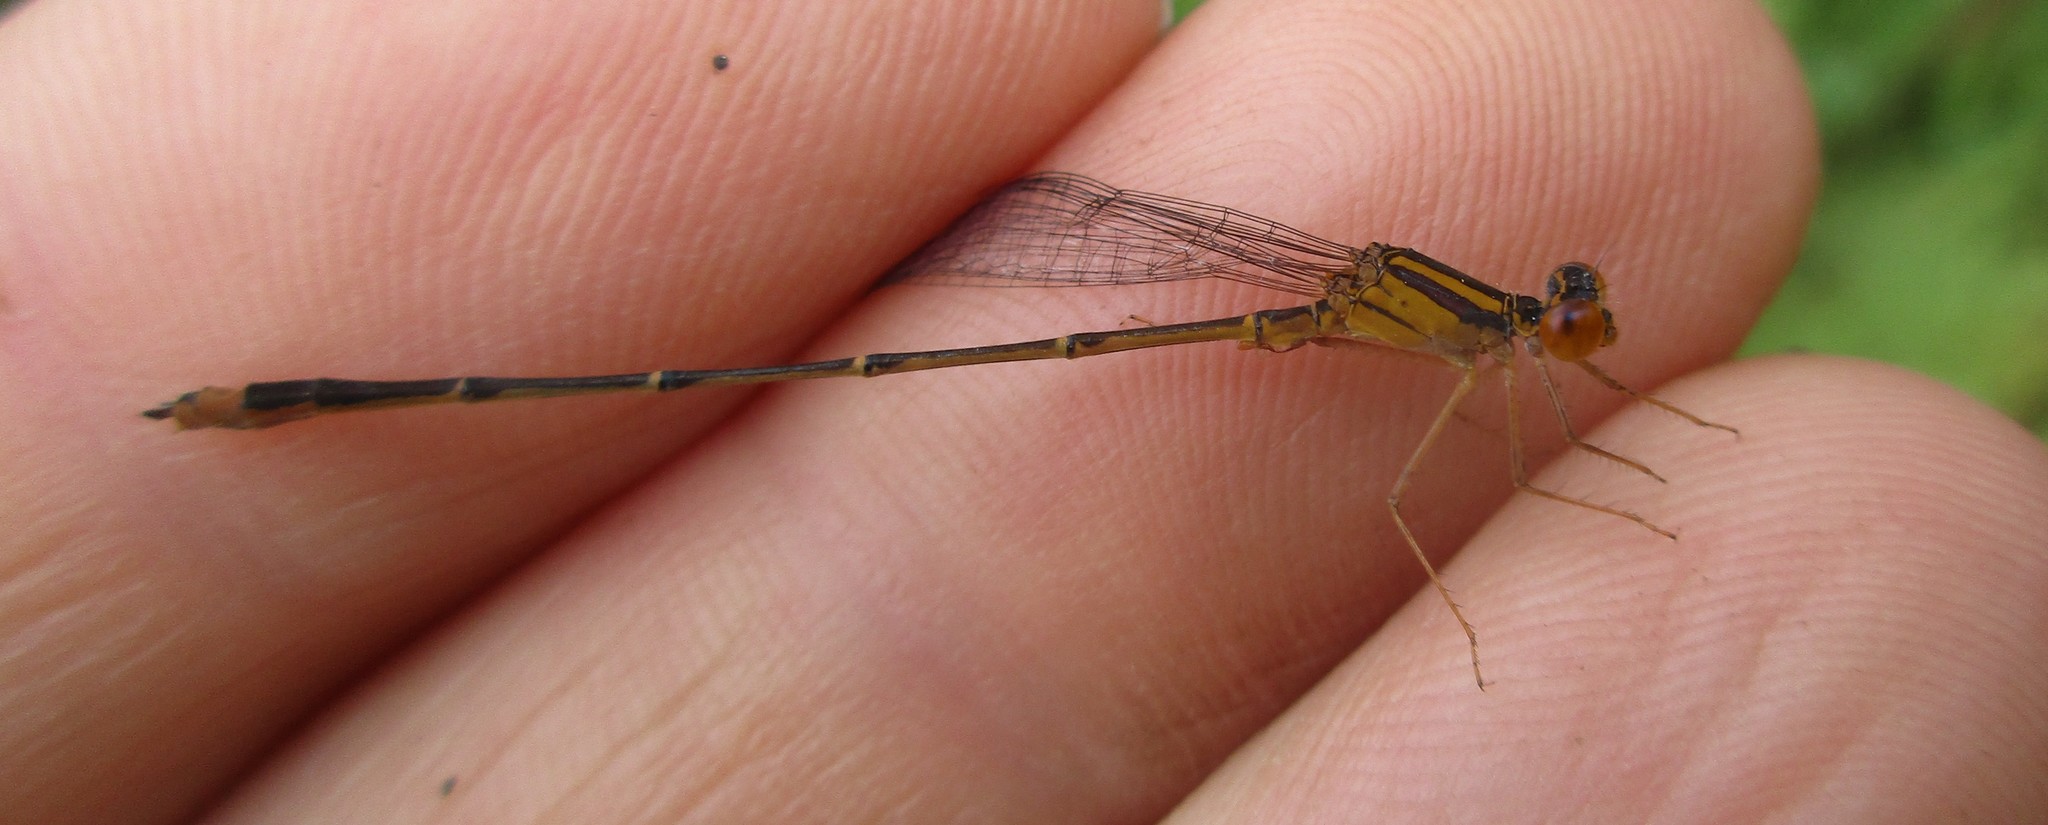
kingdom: Animalia
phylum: Arthropoda
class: Insecta
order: Odonata
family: Coenagrionidae
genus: Enallagma
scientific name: Enallagma signatum
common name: Orange bluet
